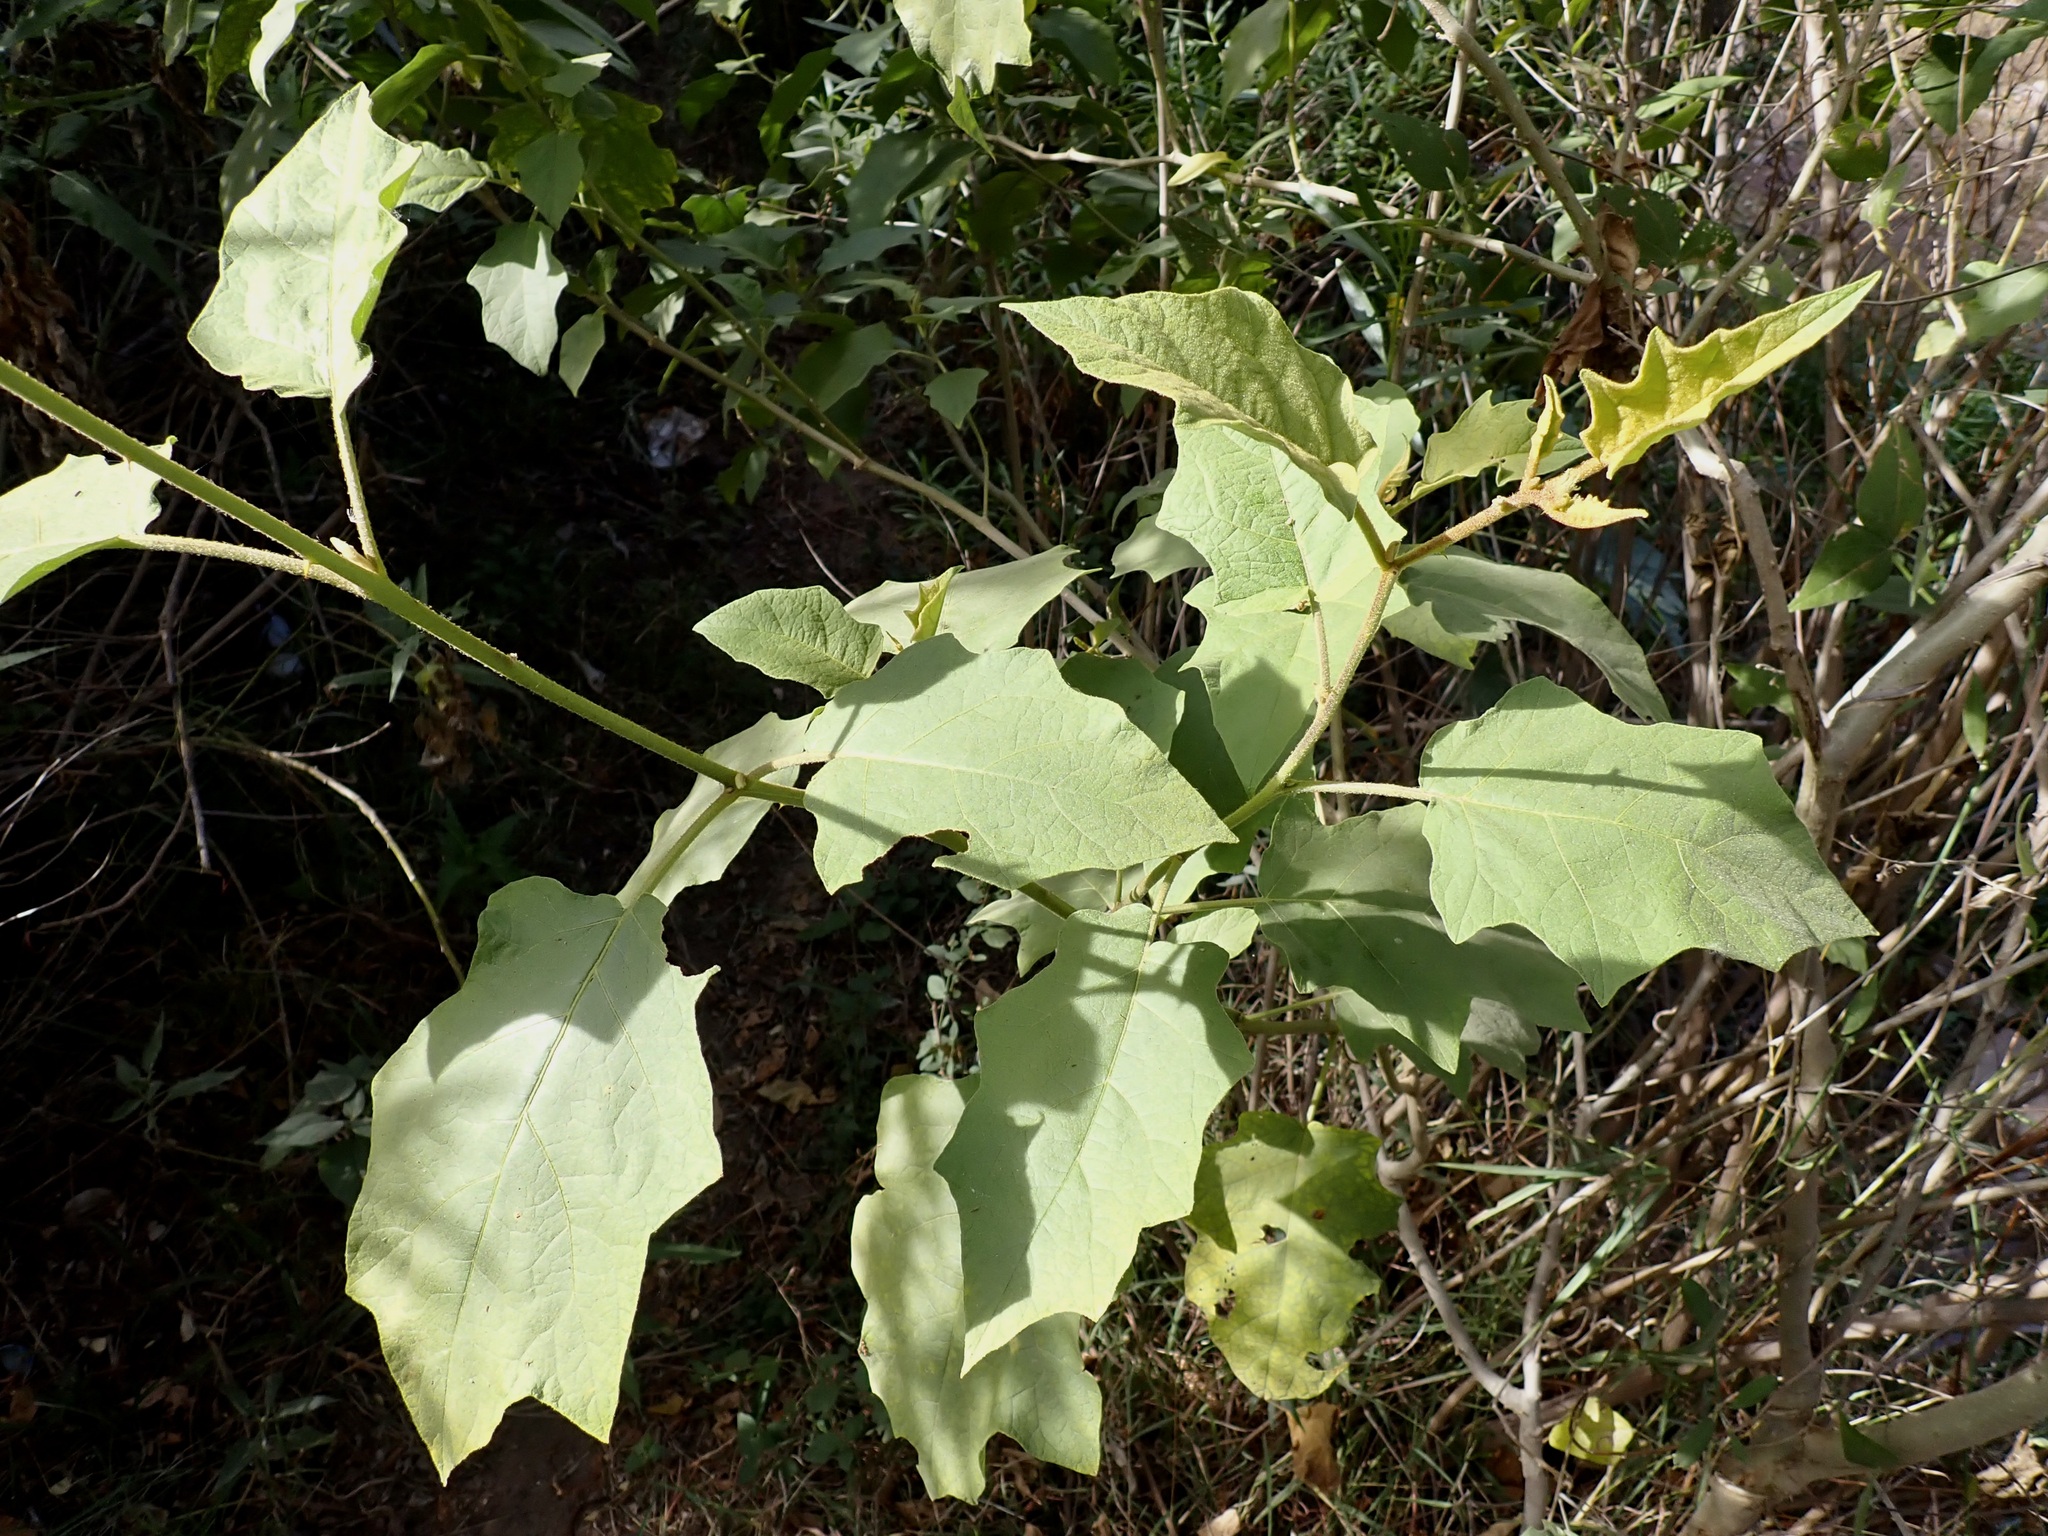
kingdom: Plantae
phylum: Tracheophyta
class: Magnoliopsida
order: Solanales
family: Solanaceae
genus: Solanum
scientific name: Solanum ferrugineum
